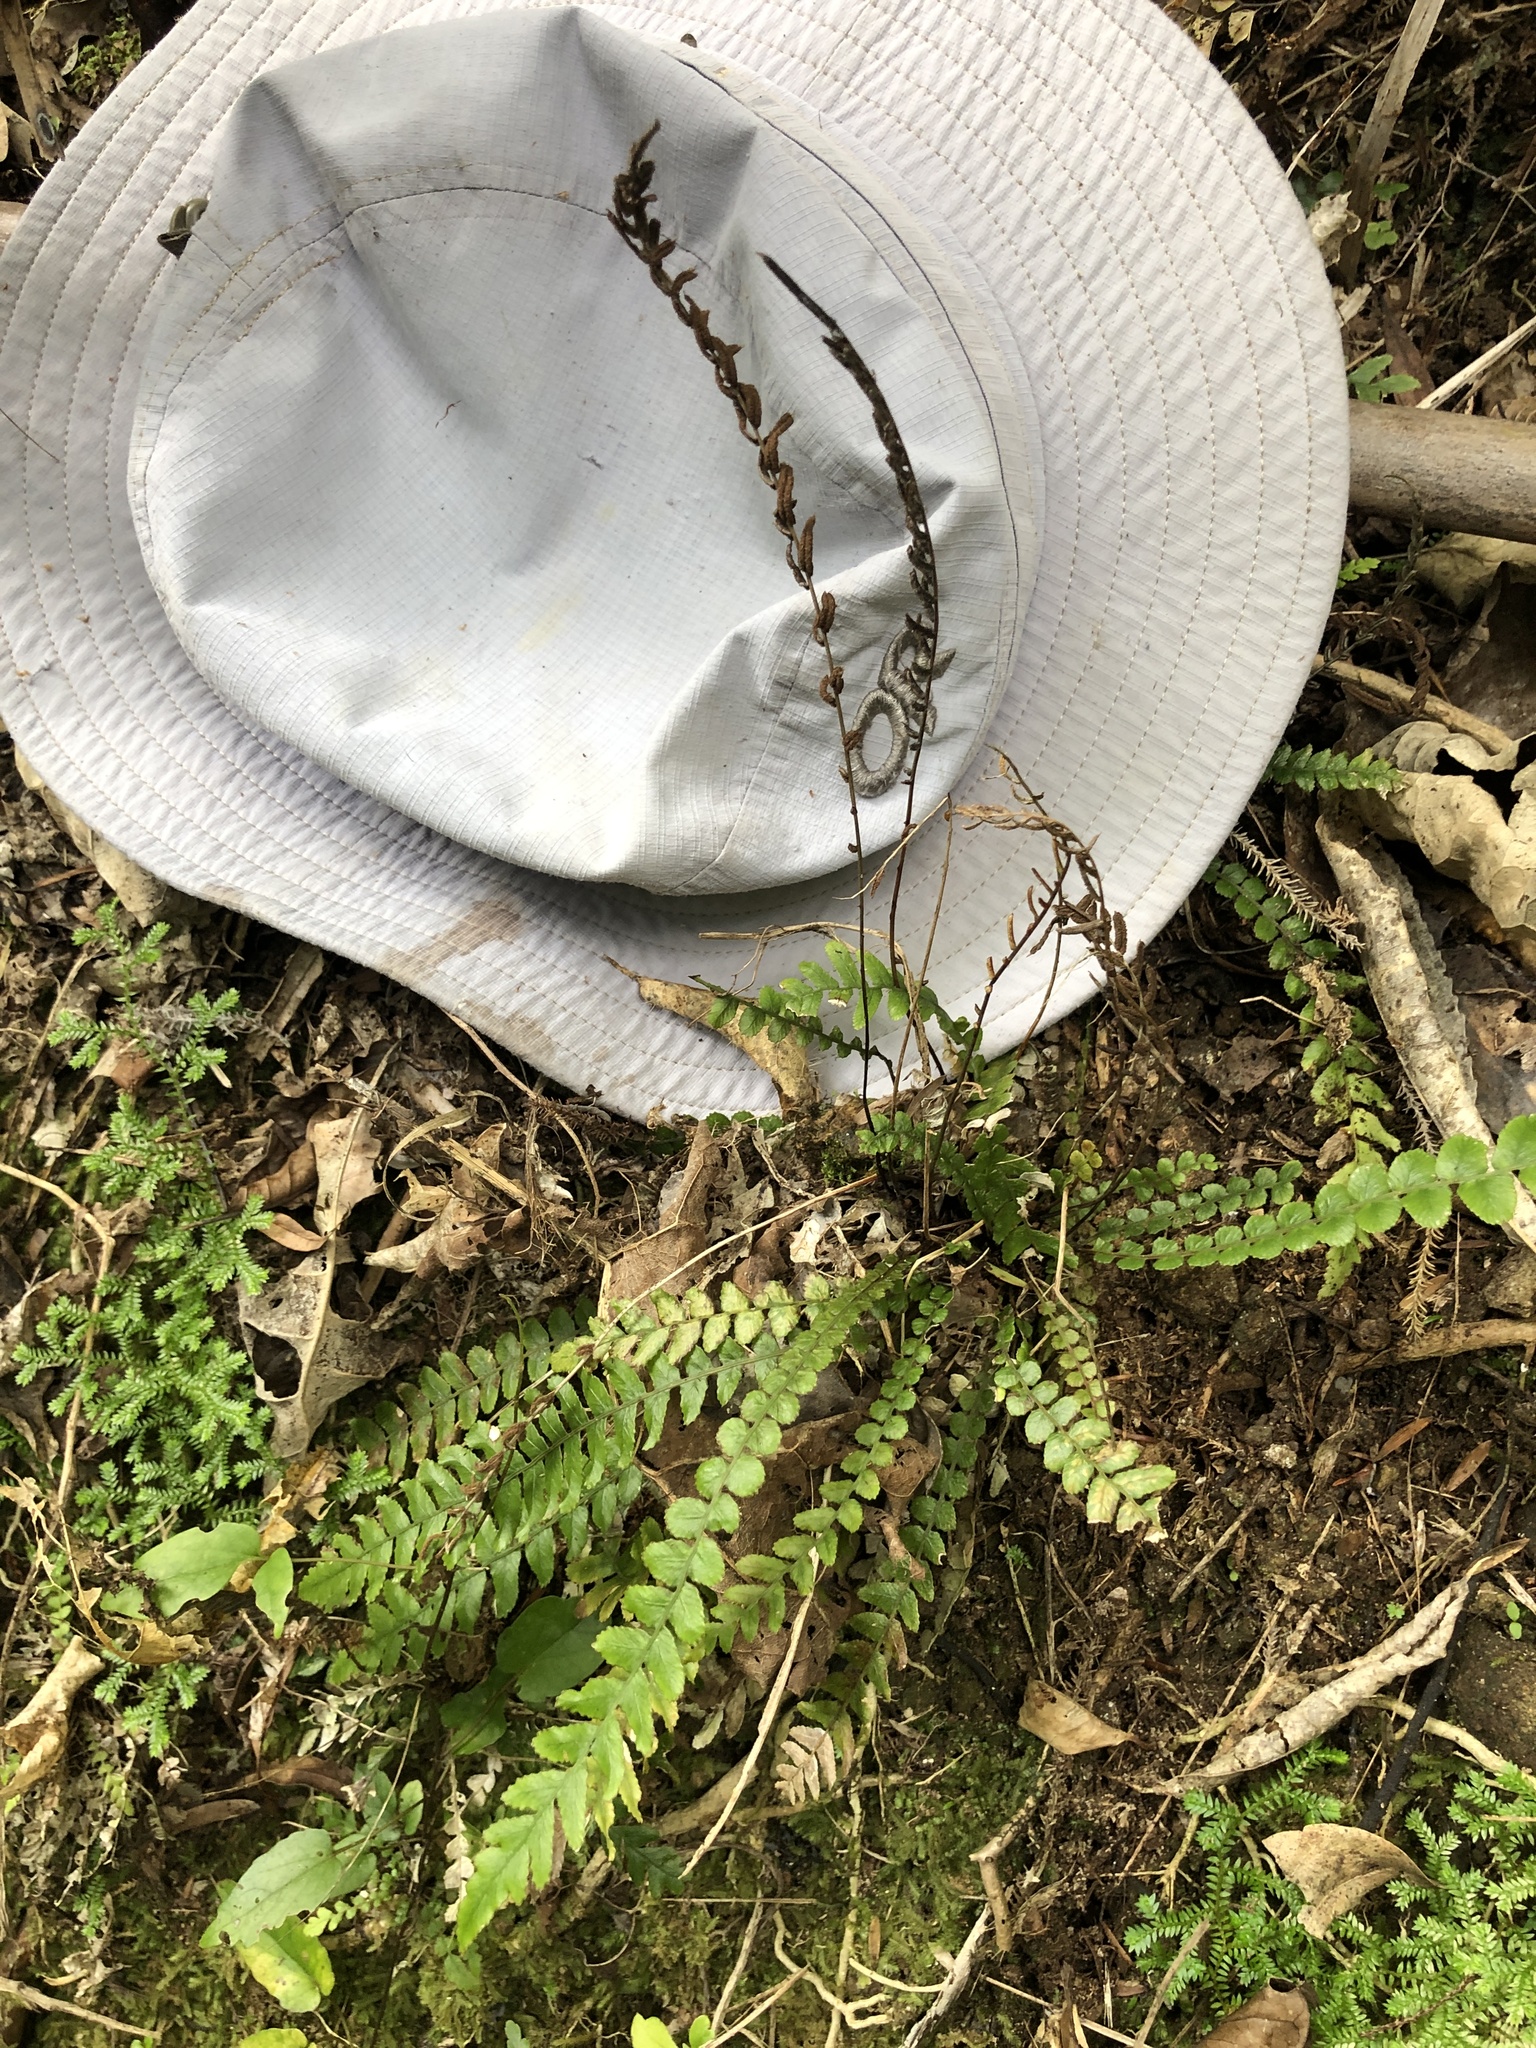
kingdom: Plantae
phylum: Tracheophyta
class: Polypodiopsida
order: Polypodiales
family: Blechnaceae
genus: Austroblechnum
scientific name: Austroblechnum membranaceum
